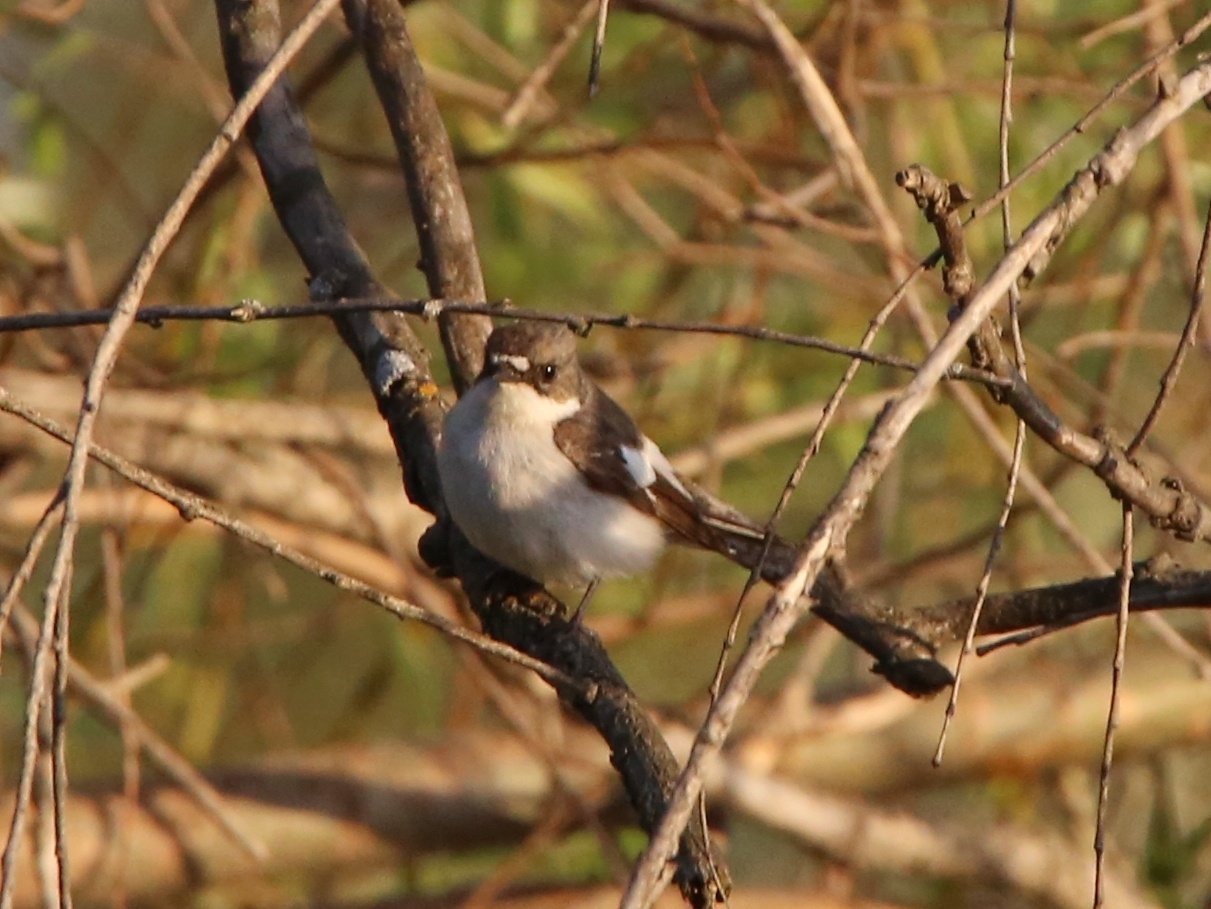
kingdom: Animalia
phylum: Chordata
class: Aves
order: Passeriformes
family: Muscicapidae
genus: Ficedula
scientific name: Ficedula hypoleuca
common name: European pied flycatcher
